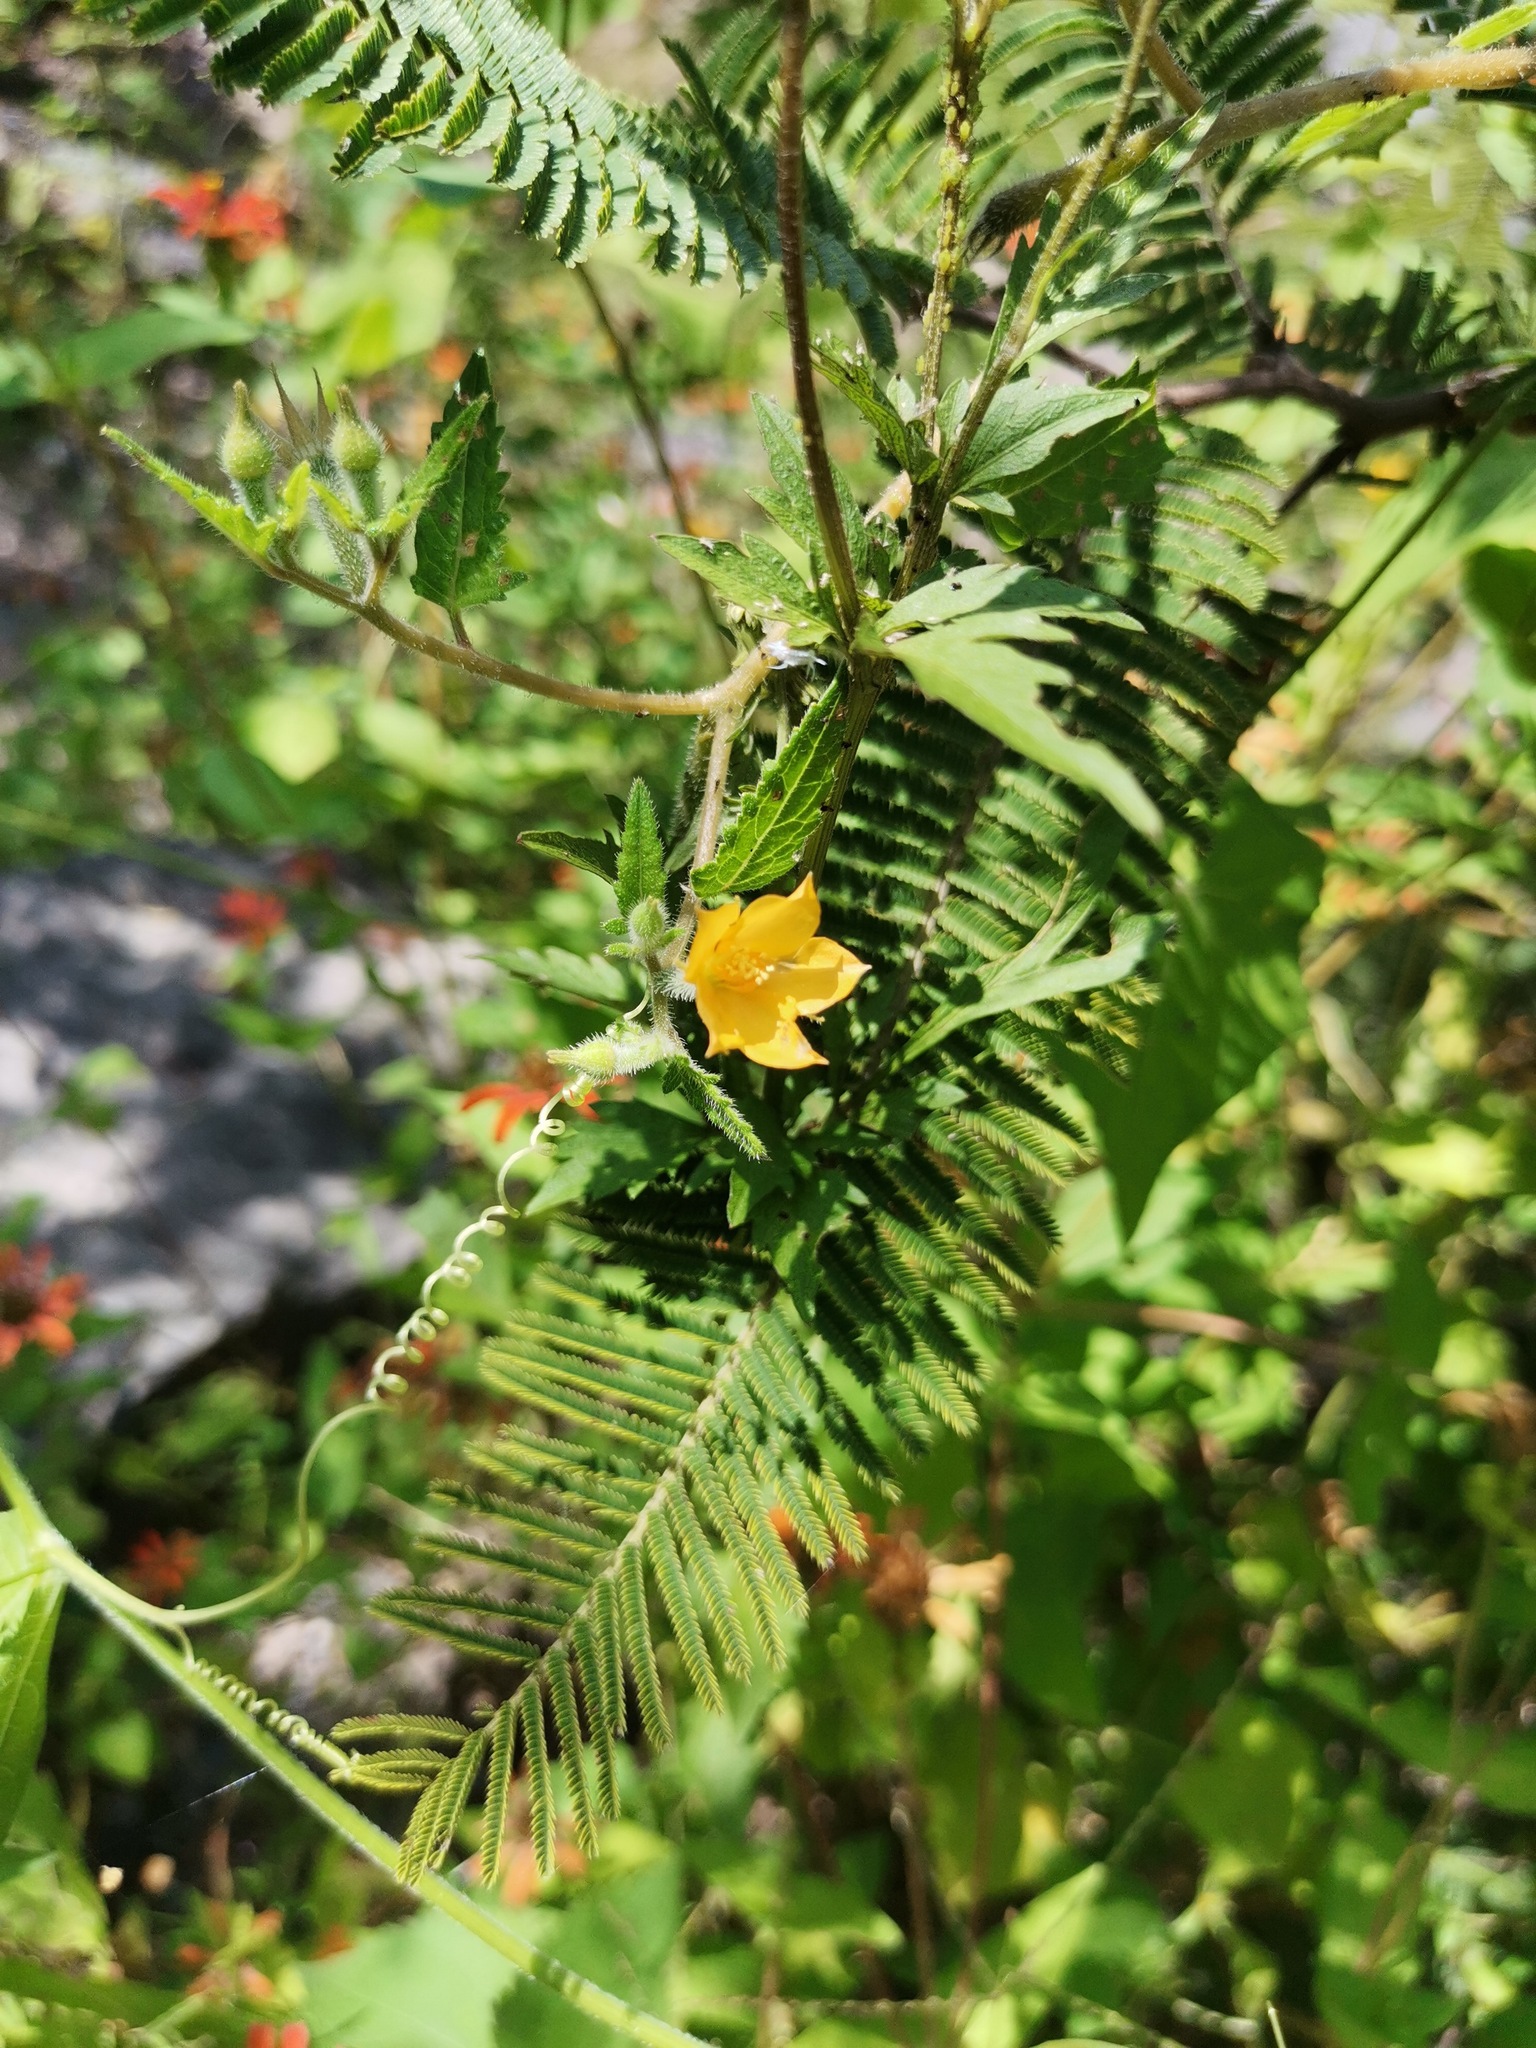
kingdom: Plantae
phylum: Tracheophyta
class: Magnoliopsida
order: Cornales
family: Loasaceae
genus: Mentzelia
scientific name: Mentzelia aspera
